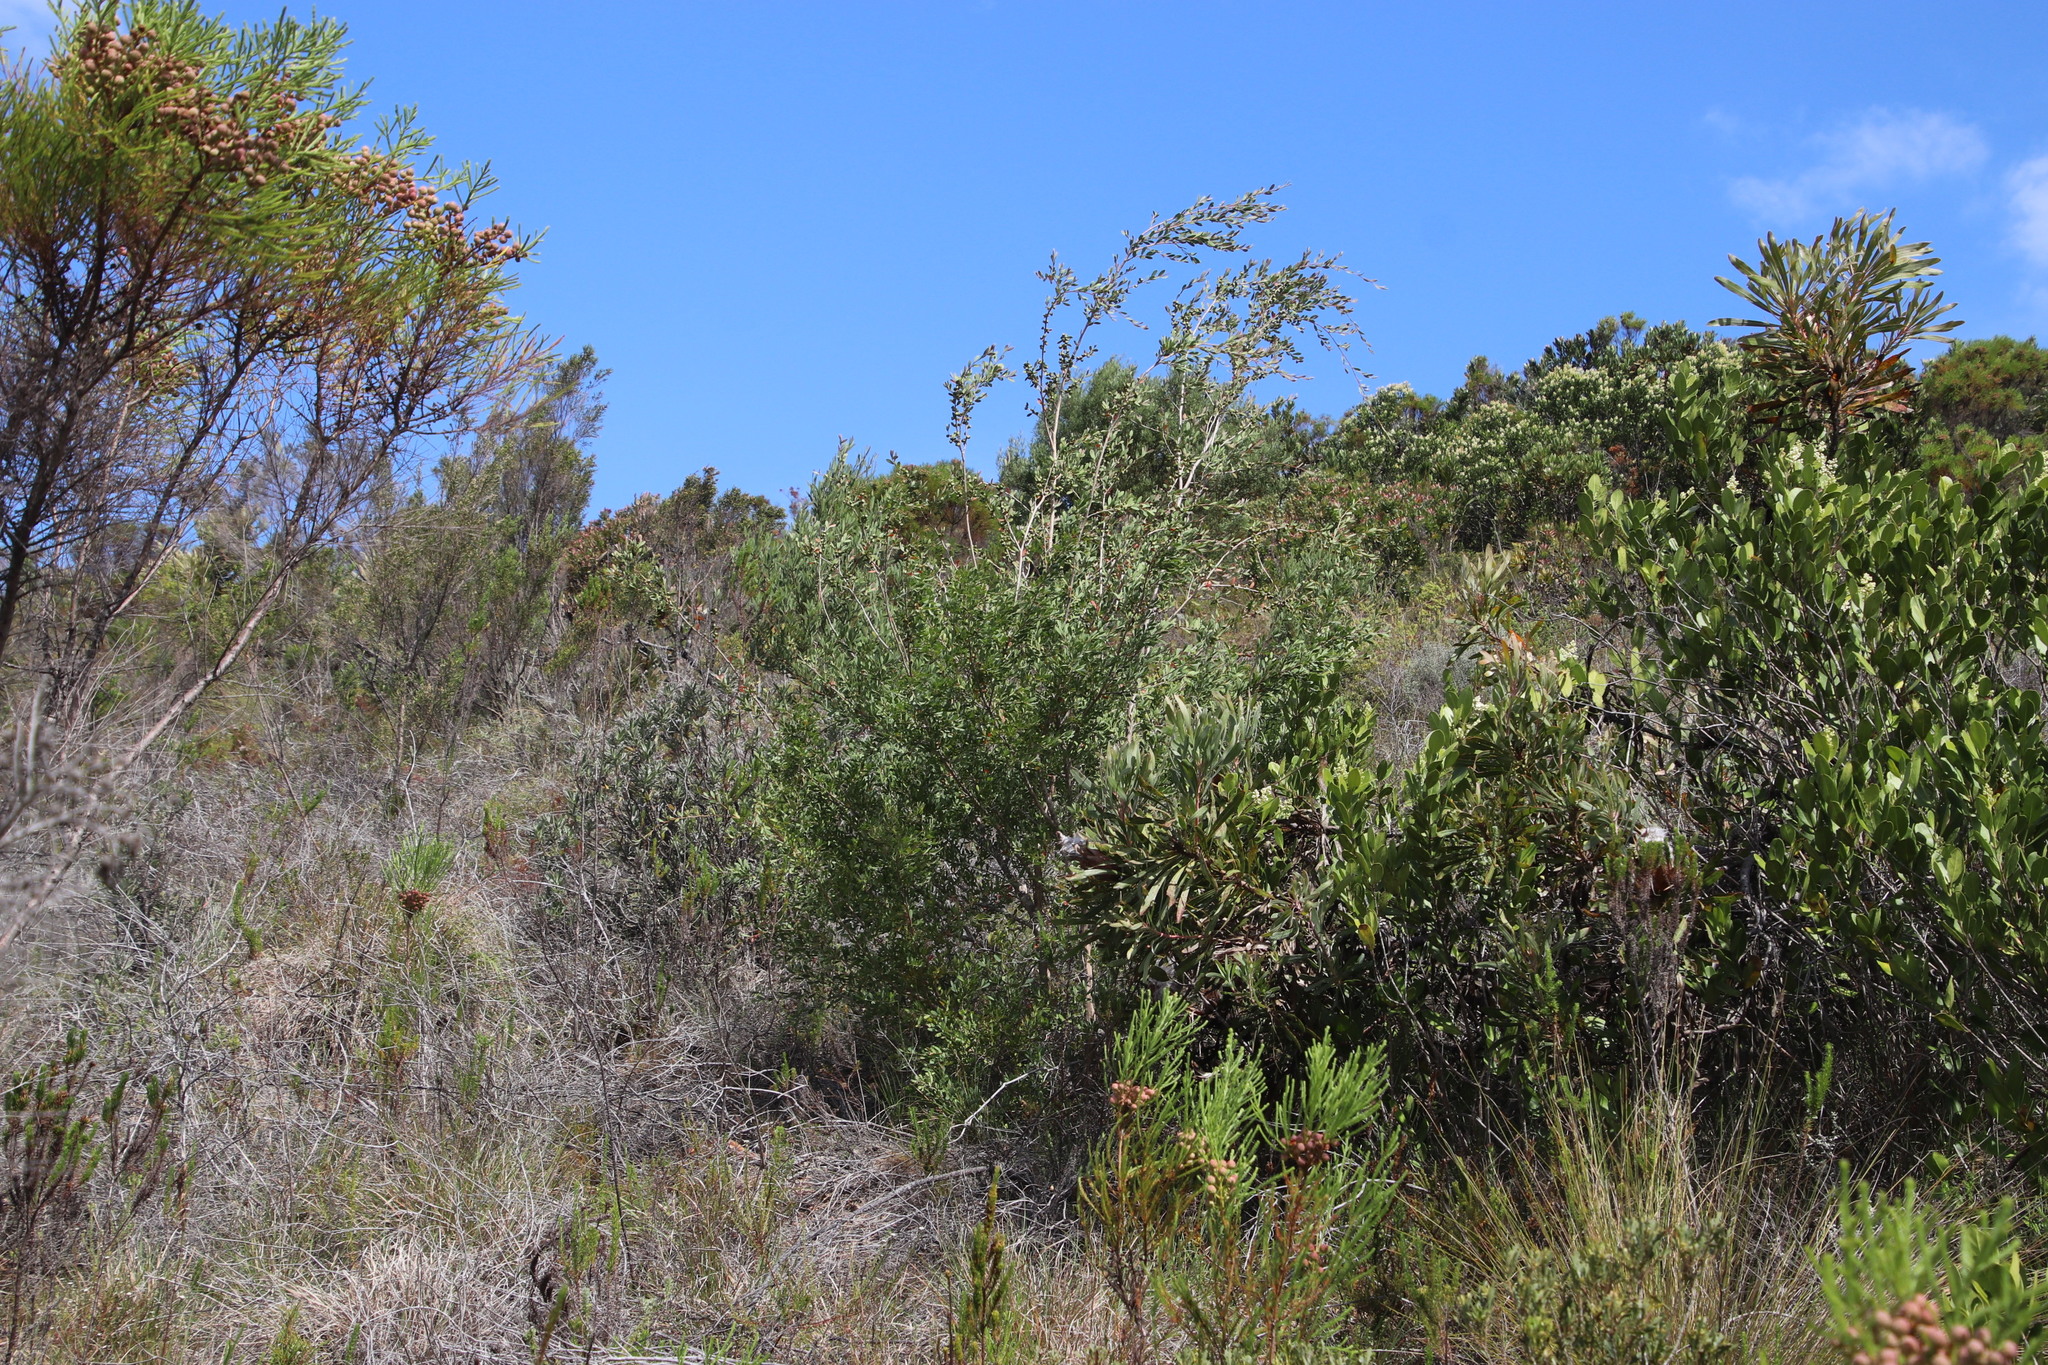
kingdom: Plantae
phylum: Tracheophyta
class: Magnoliopsida
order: Myrtales
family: Myrtaceae
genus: Leptospermum
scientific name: Leptospermum laevigatum
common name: Australian teatree
